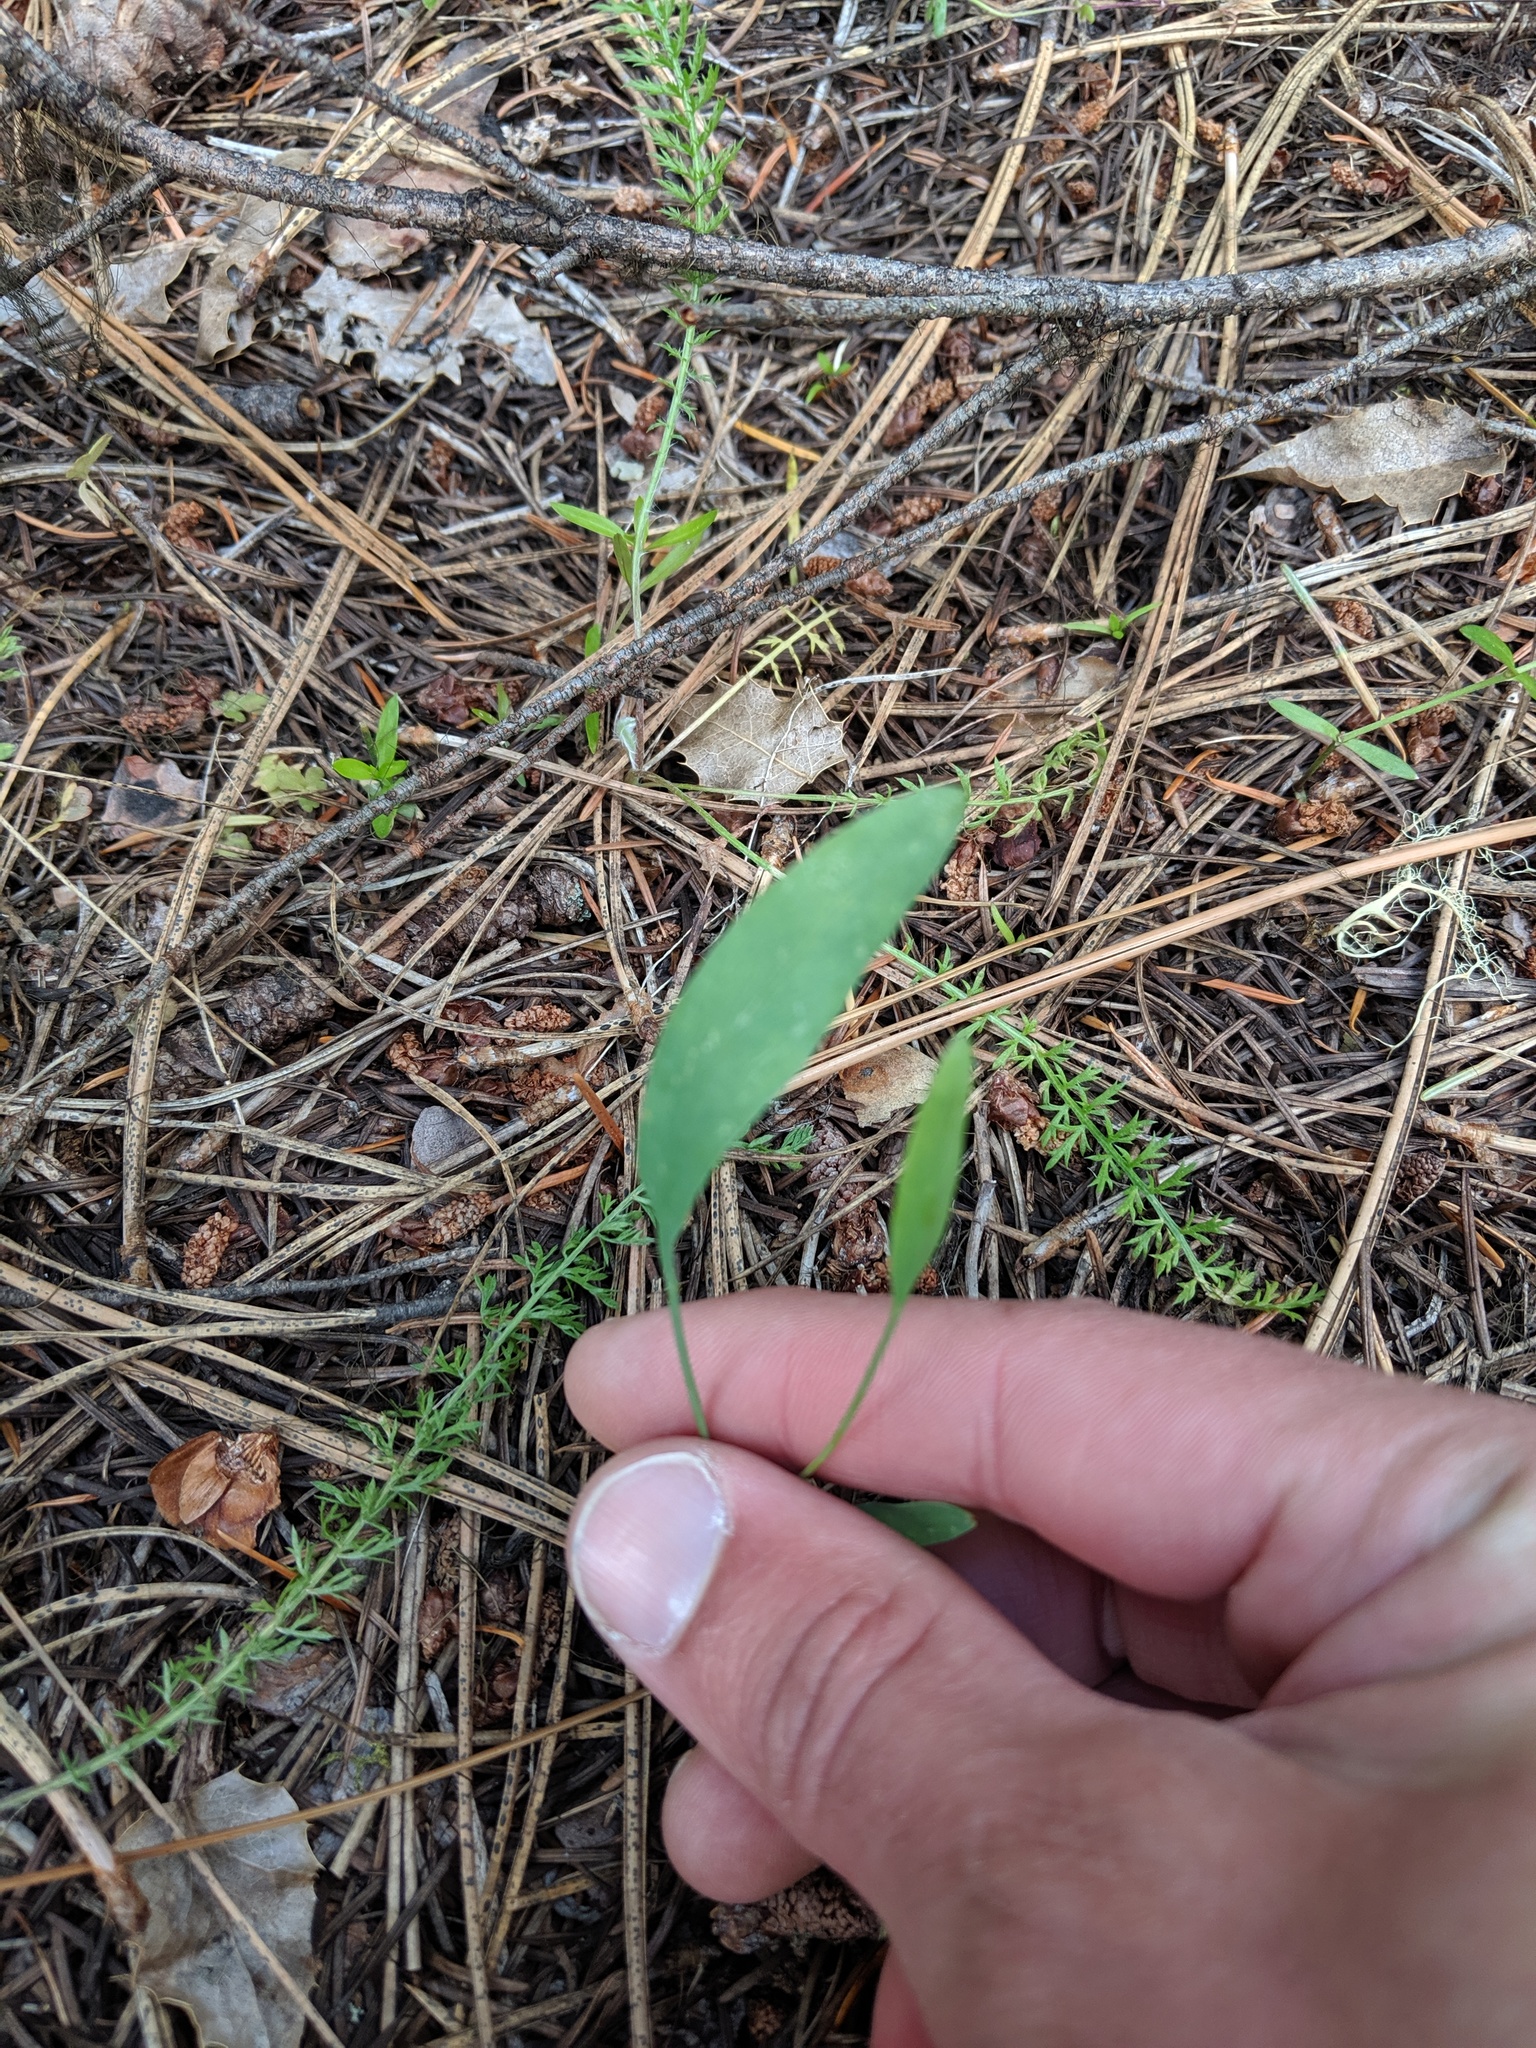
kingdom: Plantae
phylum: Tracheophyta
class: Magnoliopsida
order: Apiales
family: Apiaceae
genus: Lomatium
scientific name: Lomatium nudicaule
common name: Pestle lomatium
